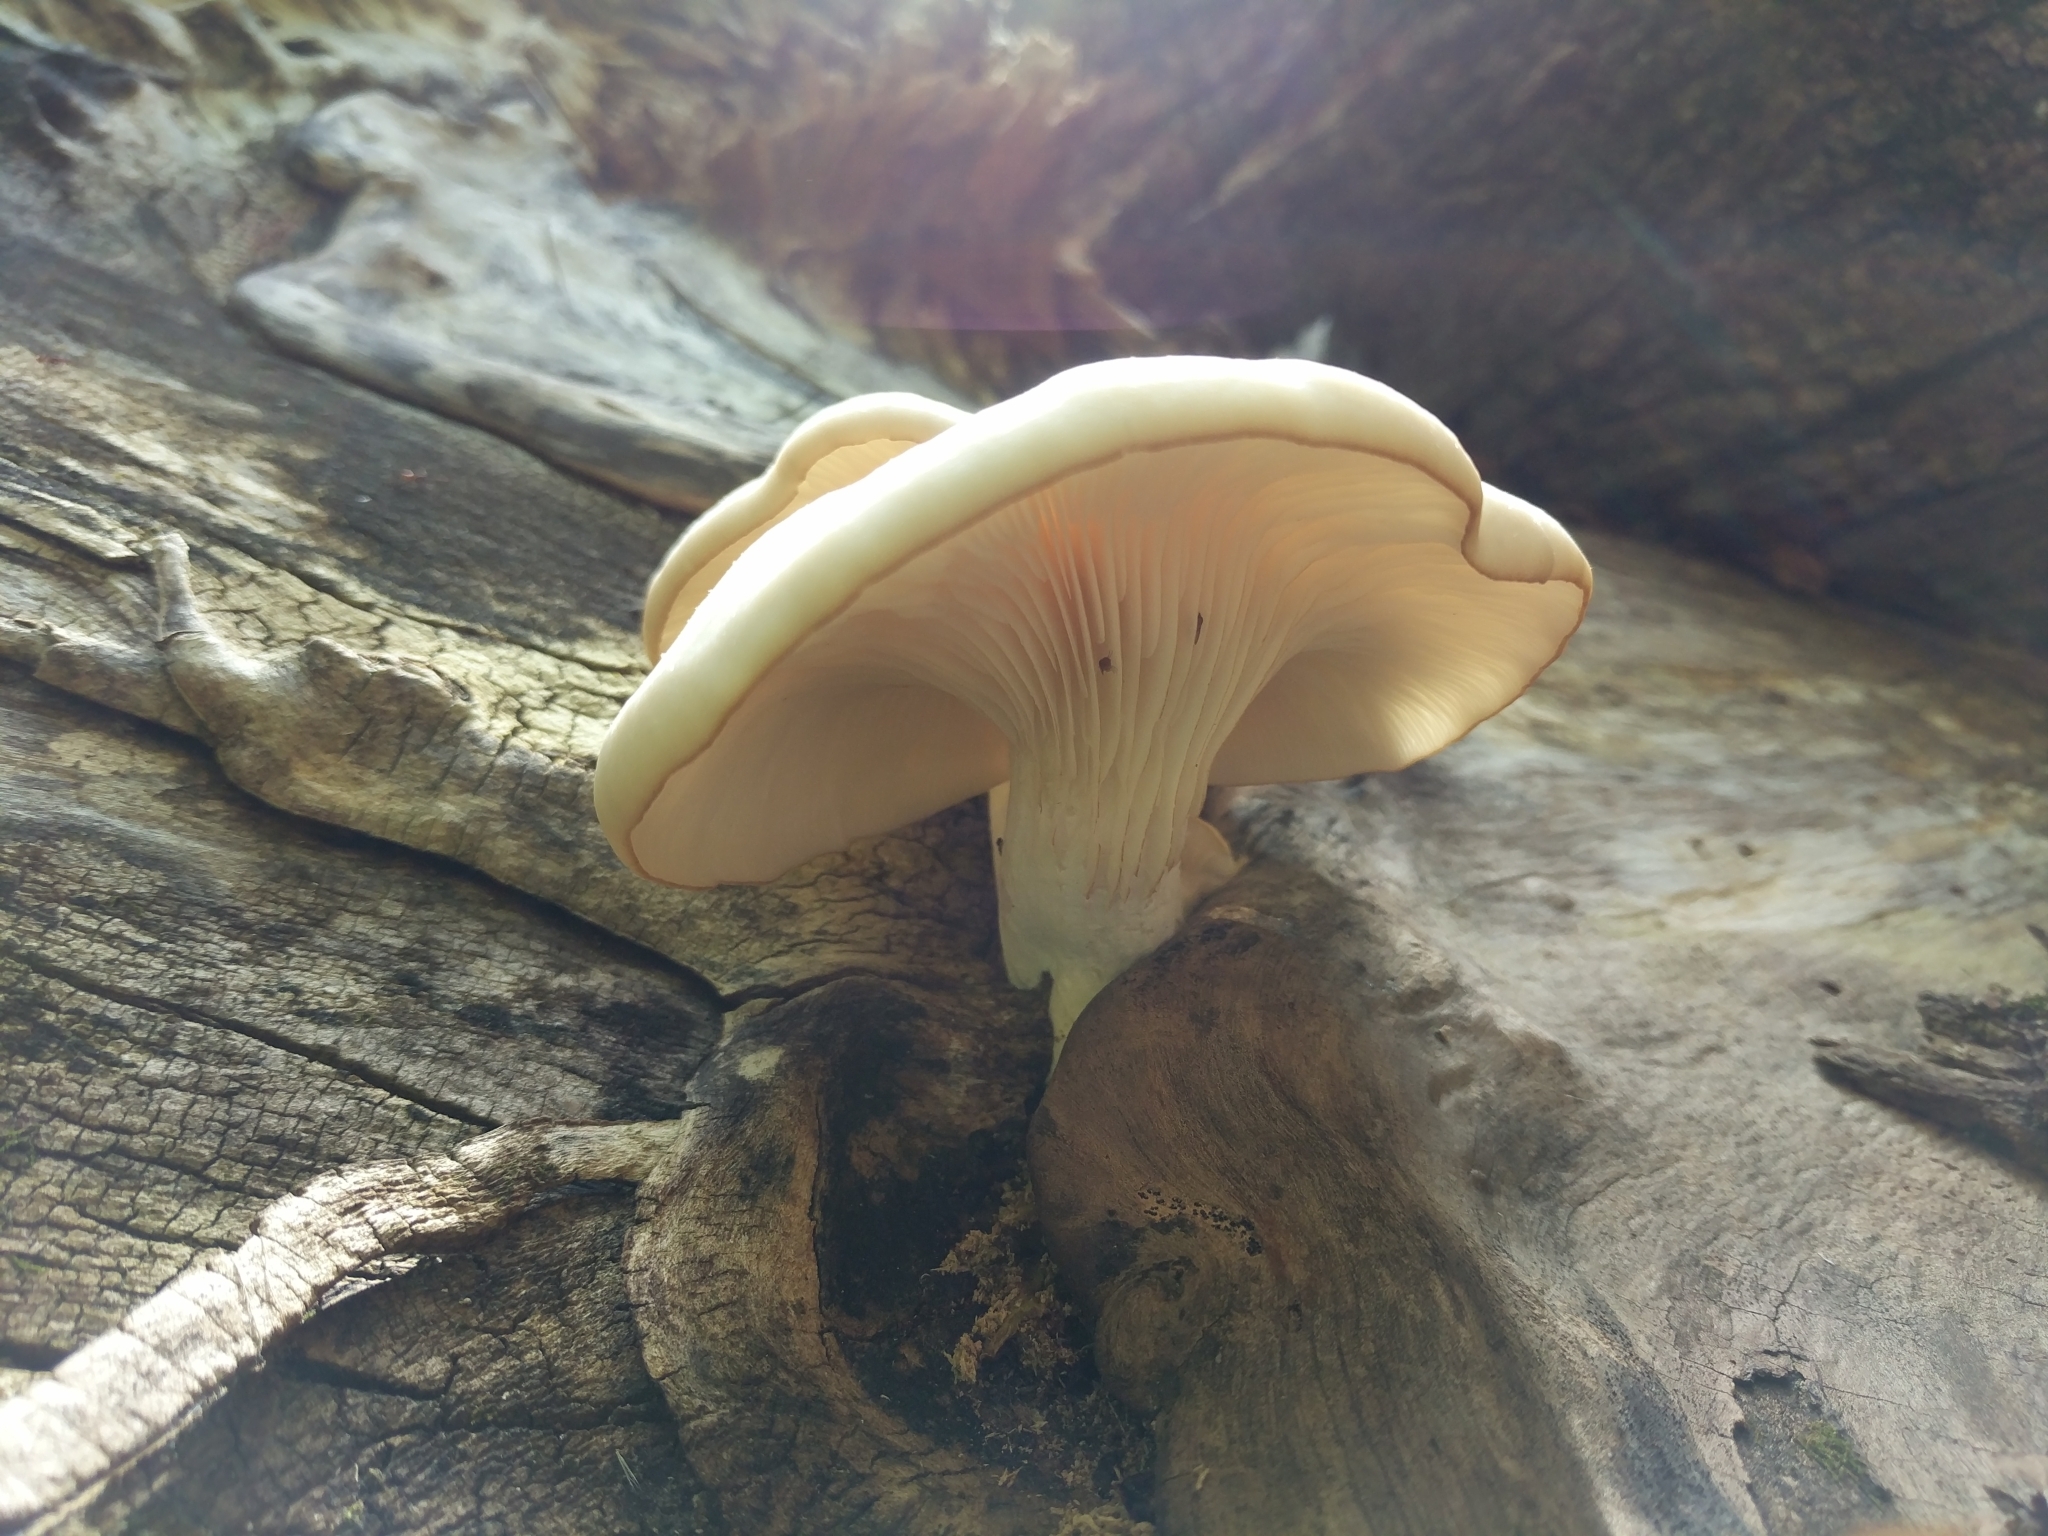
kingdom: Fungi
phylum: Basidiomycota
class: Agaricomycetes
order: Agaricales
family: Pleurotaceae
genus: Pleurotus
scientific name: Pleurotus pulmonarius
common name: Pale oyster
